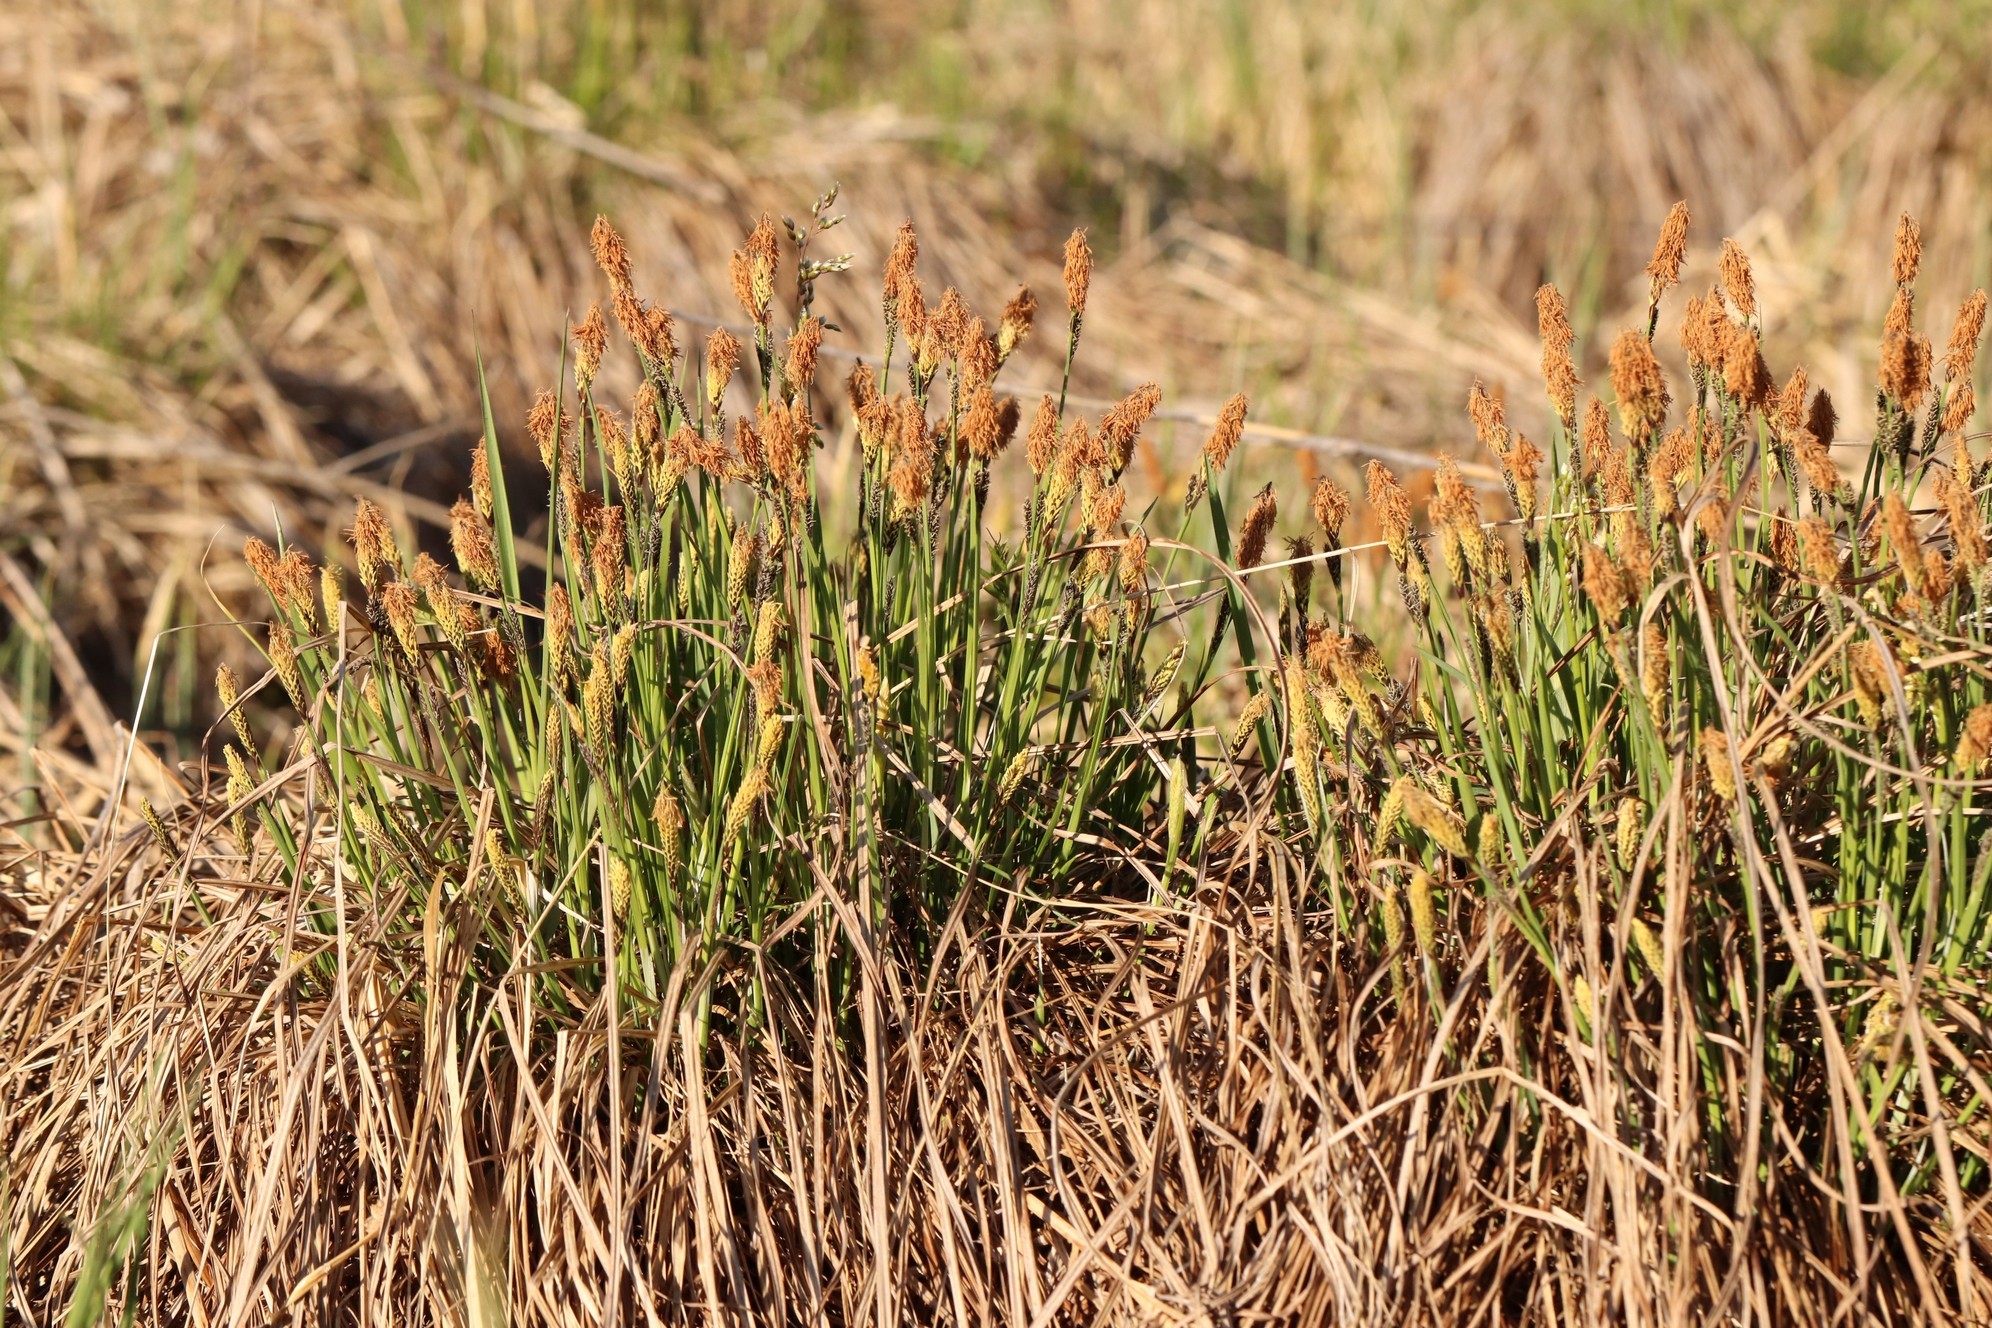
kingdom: Plantae
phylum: Tracheophyta
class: Liliopsida
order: Poales
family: Cyperaceae
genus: Carex
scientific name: Carex cespitosa
